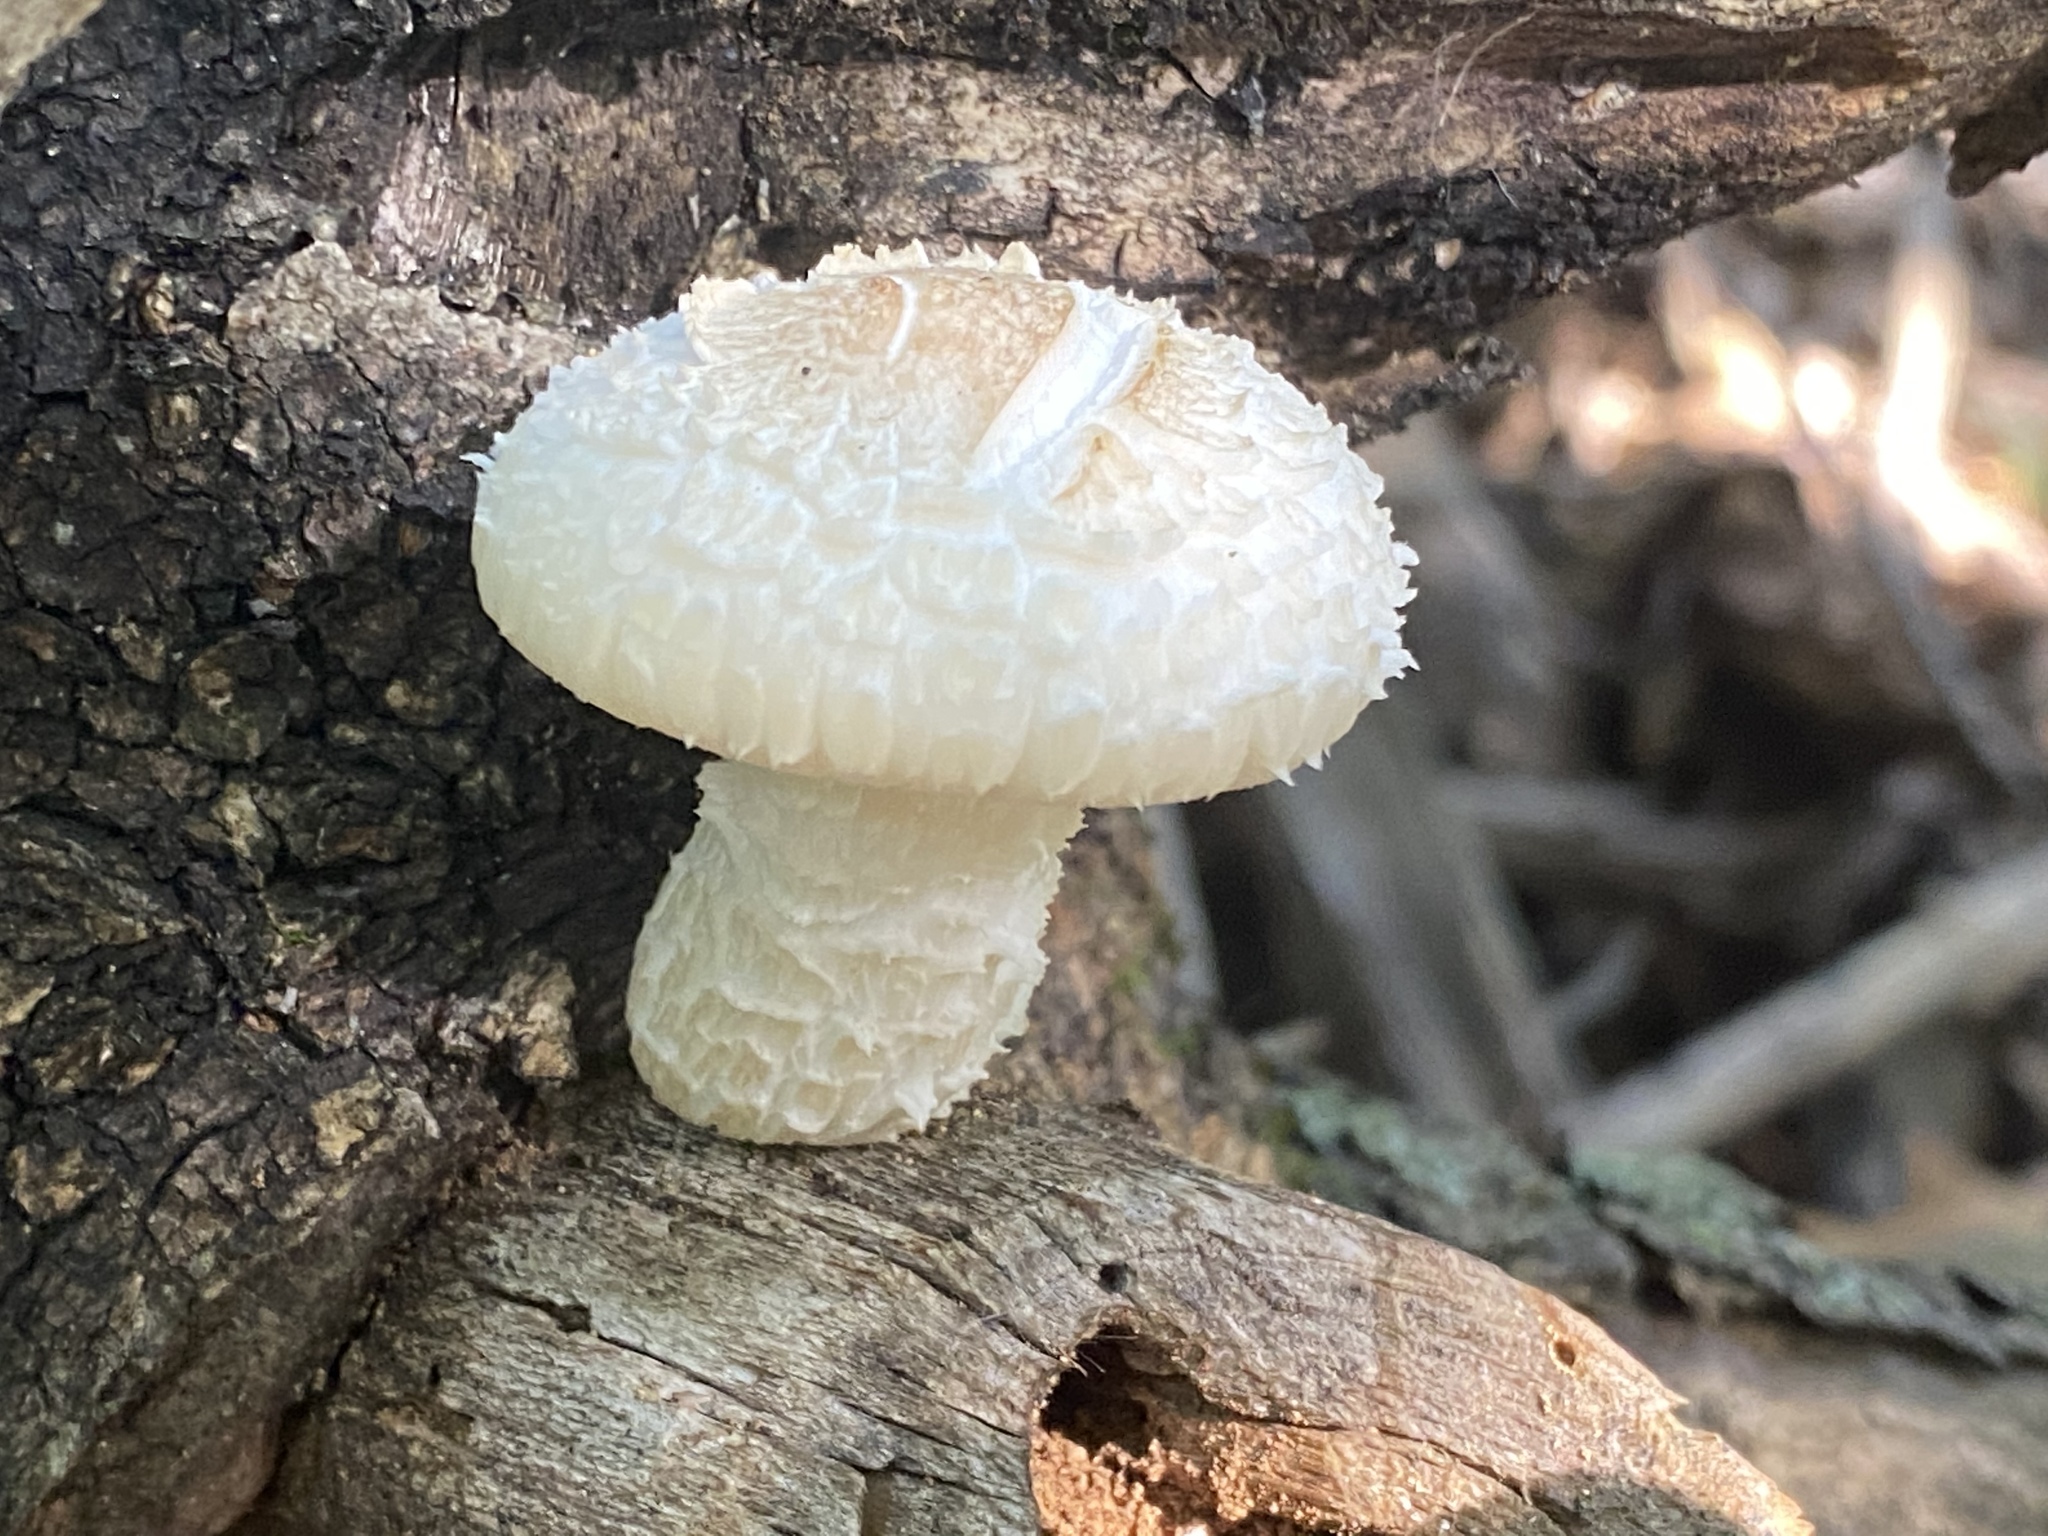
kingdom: Fungi
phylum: Basidiomycota
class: Agaricomycetes
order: Gloeophyllales
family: Gloeophyllaceae
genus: Neolentinus
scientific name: Neolentinus lepideus
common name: Scaly sawgill
